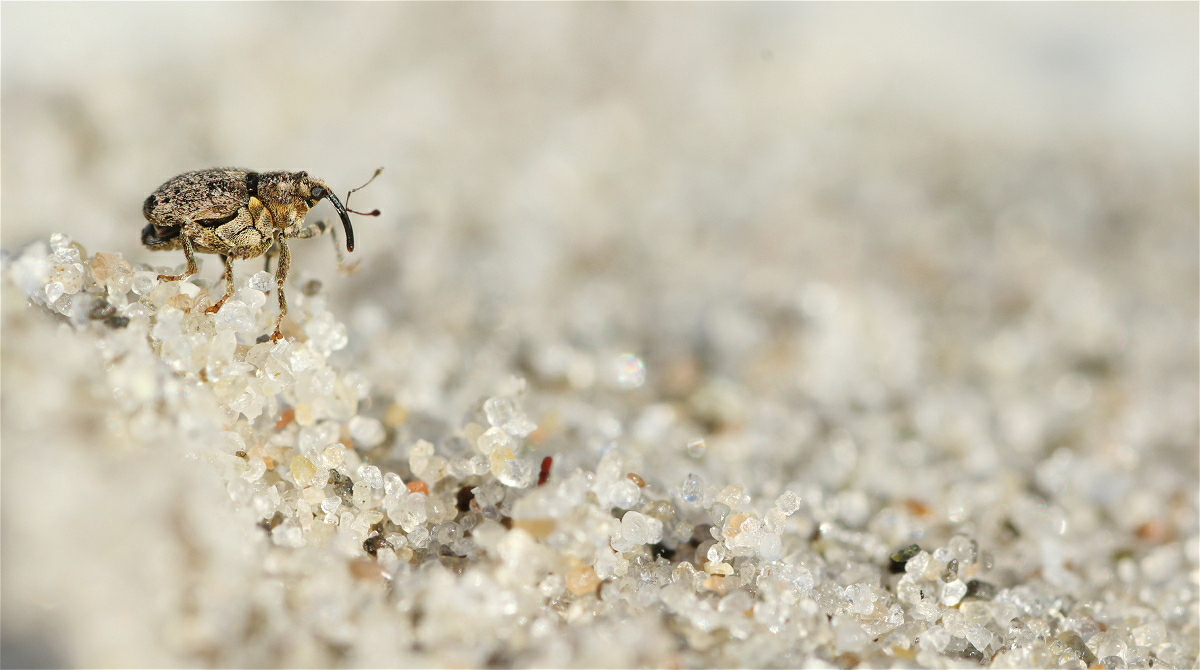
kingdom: Animalia
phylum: Arthropoda
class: Insecta
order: Coleoptera
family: Curculionidae
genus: Ceutorhynchus
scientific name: Ceutorhynchus pallidactylus
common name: Cabbage stem weavil
